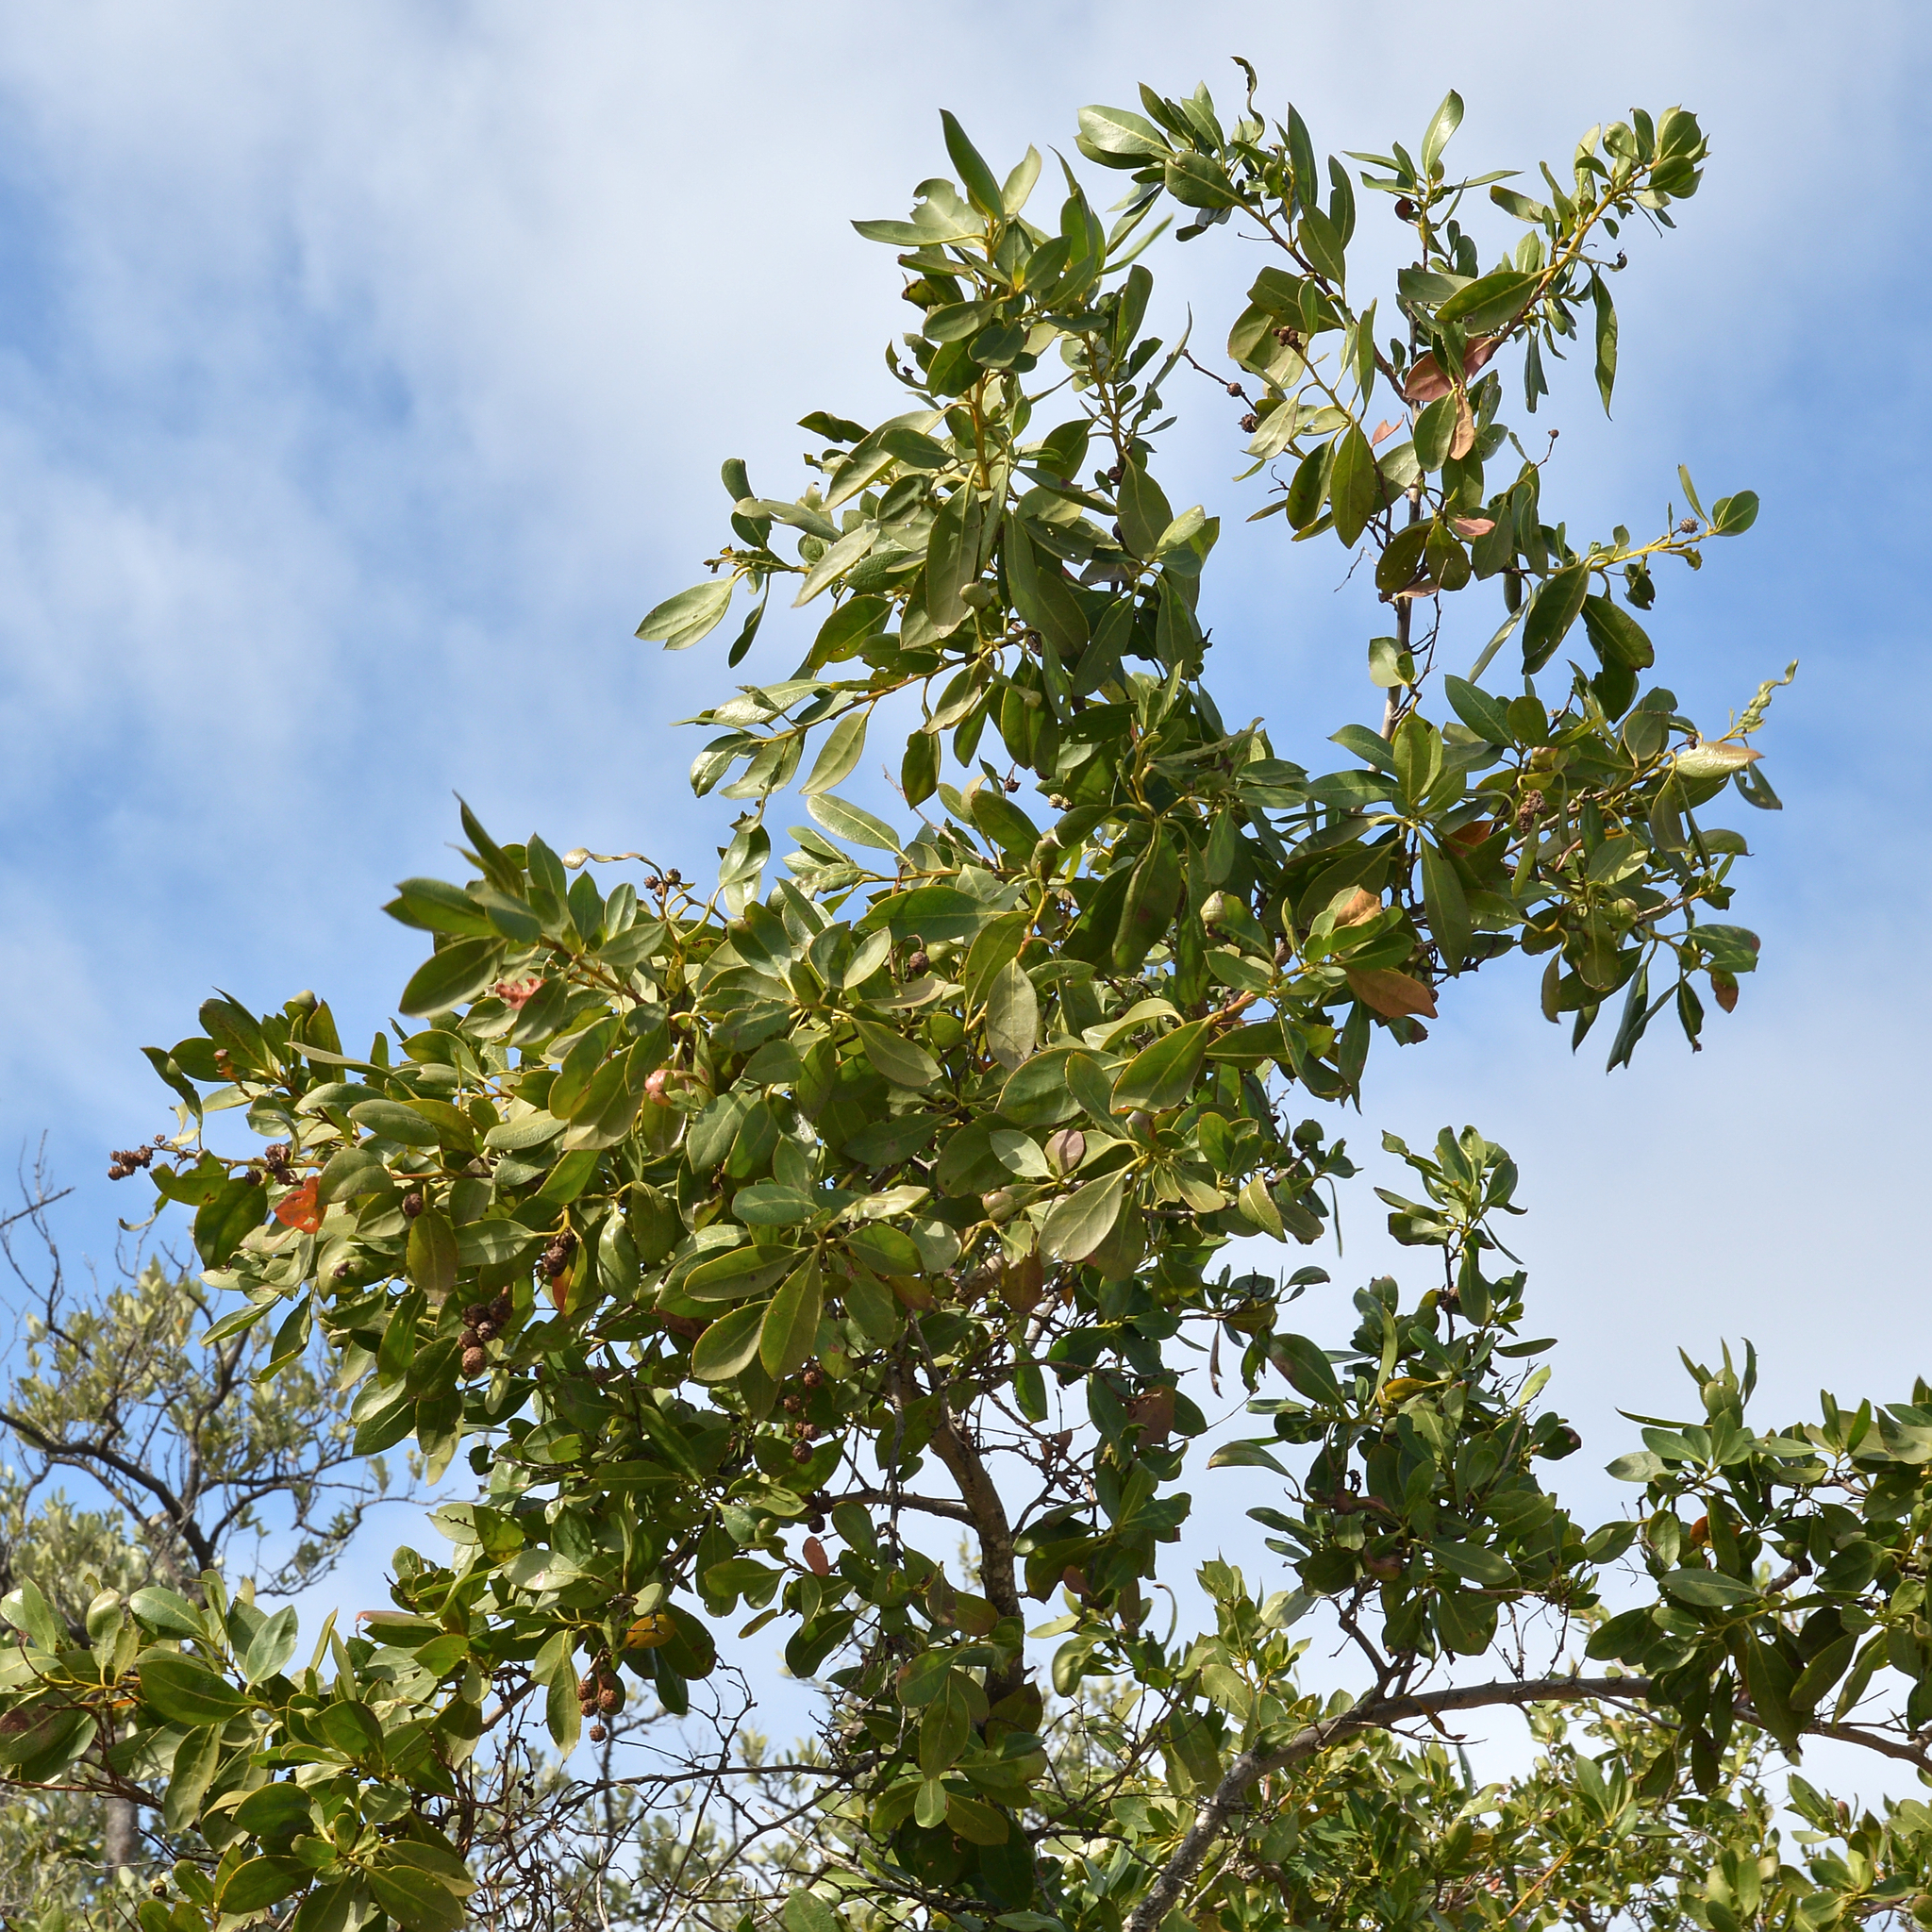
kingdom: Plantae
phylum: Tracheophyta
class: Magnoliopsida
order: Myrtales
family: Combretaceae
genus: Conocarpus
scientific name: Conocarpus erectus
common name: Button mangrove
